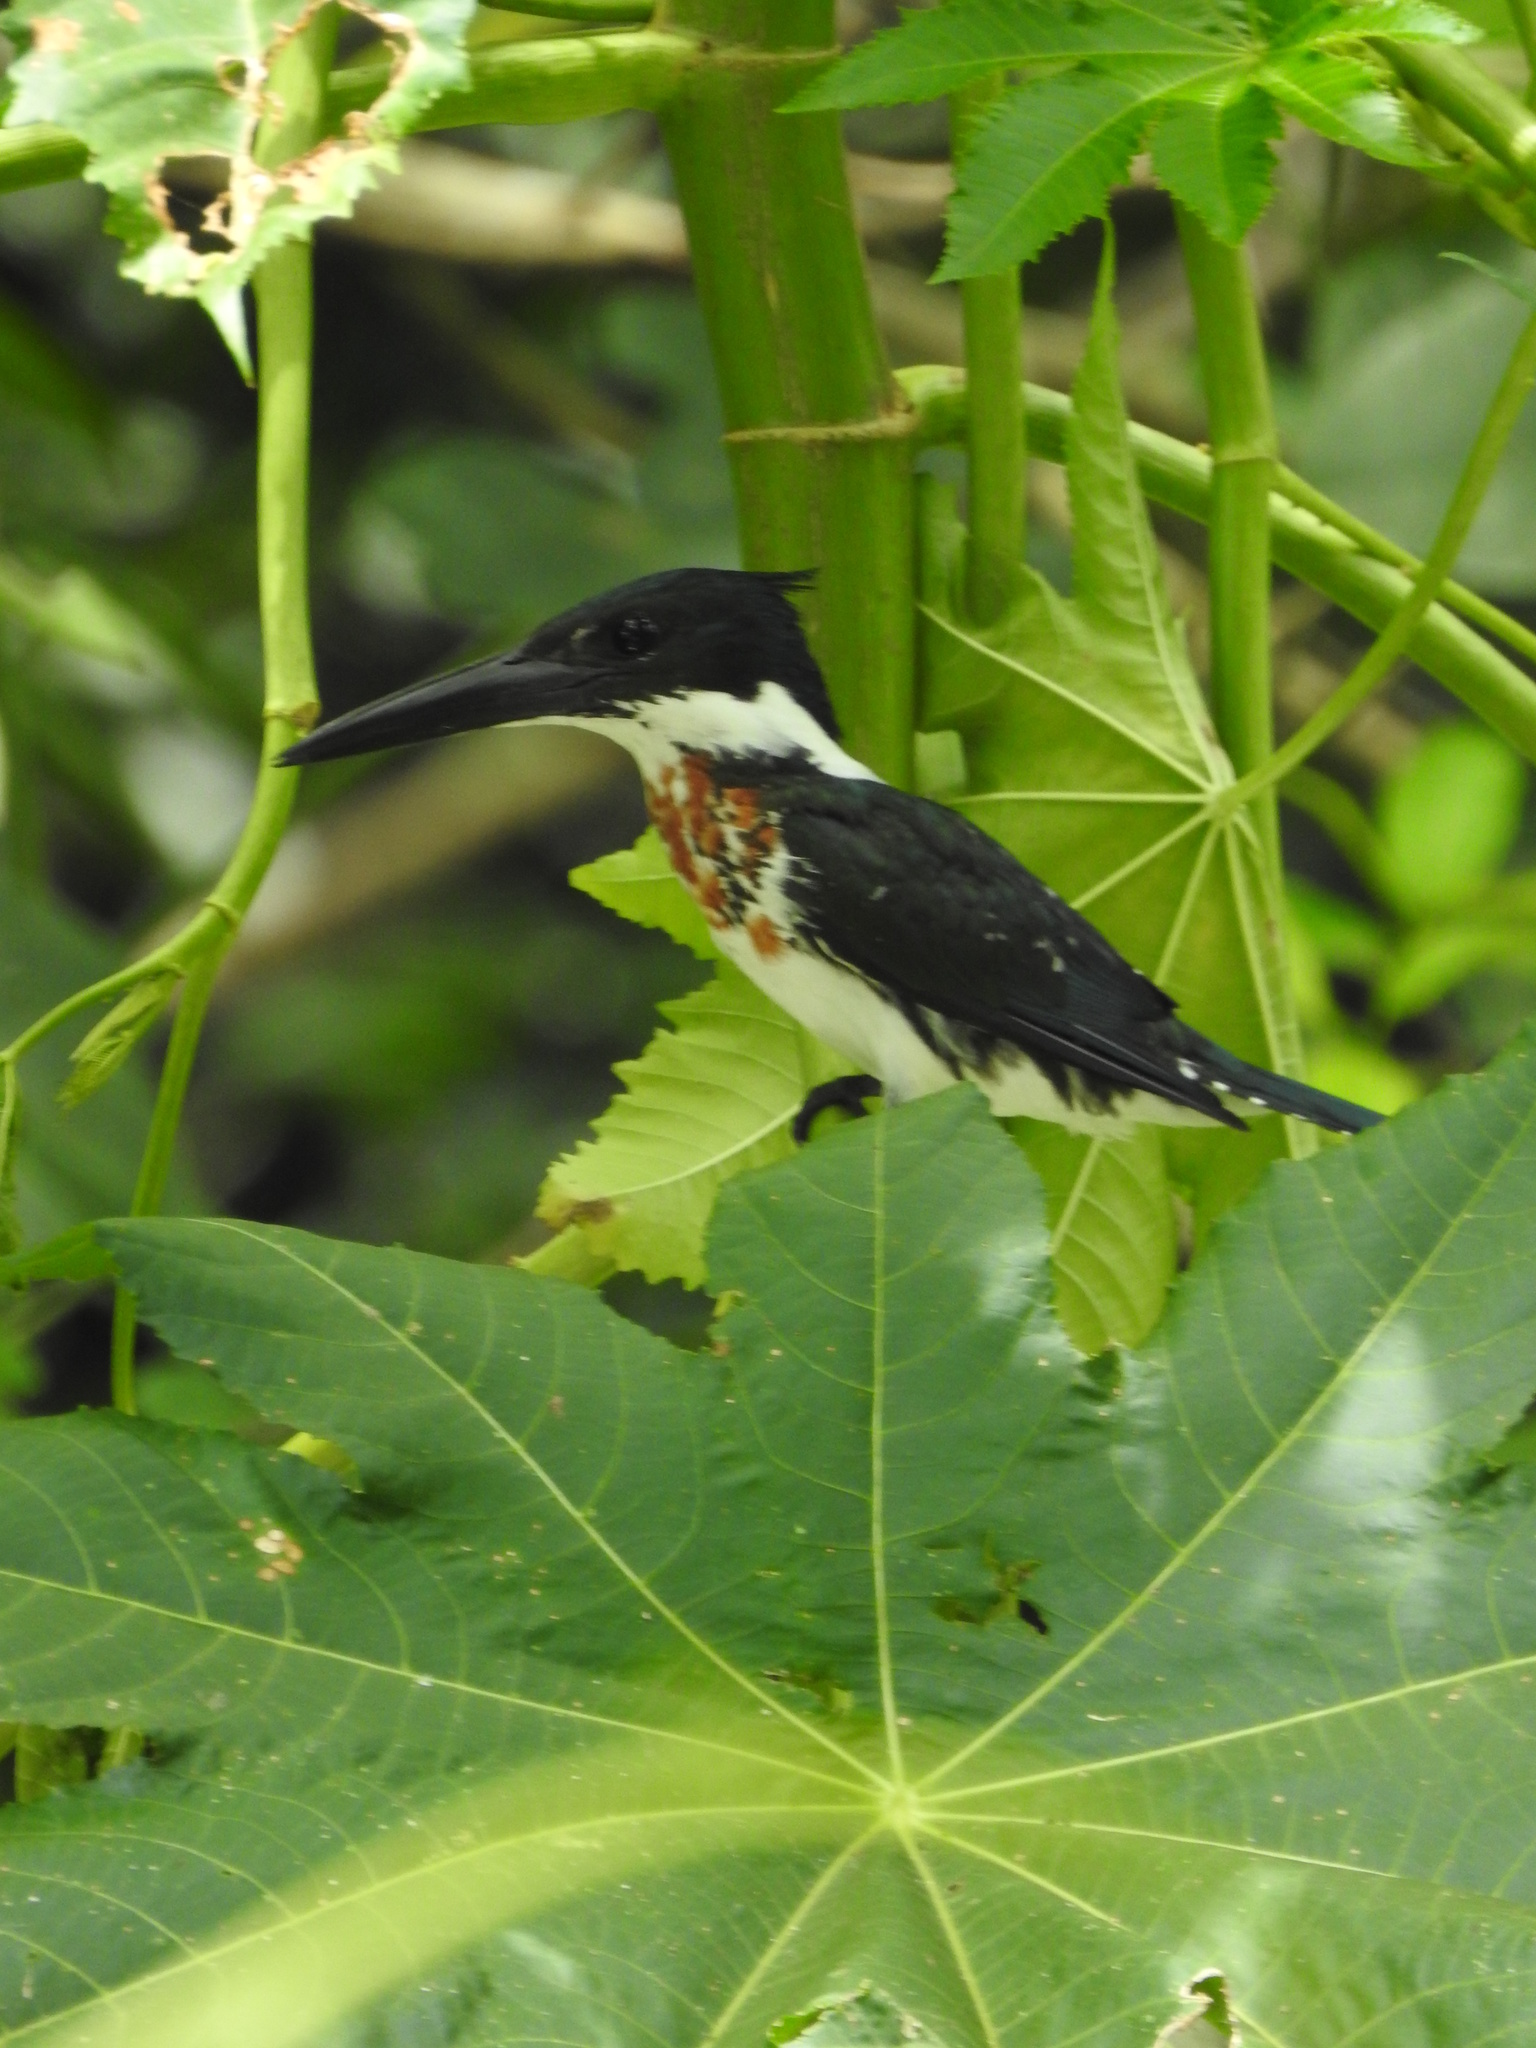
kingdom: Animalia
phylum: Chordata
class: Aves
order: Coraciiformes
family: Alcedinidae
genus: Chloroceryle
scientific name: Chloroceryle amazona
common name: Amazon kingfisher
